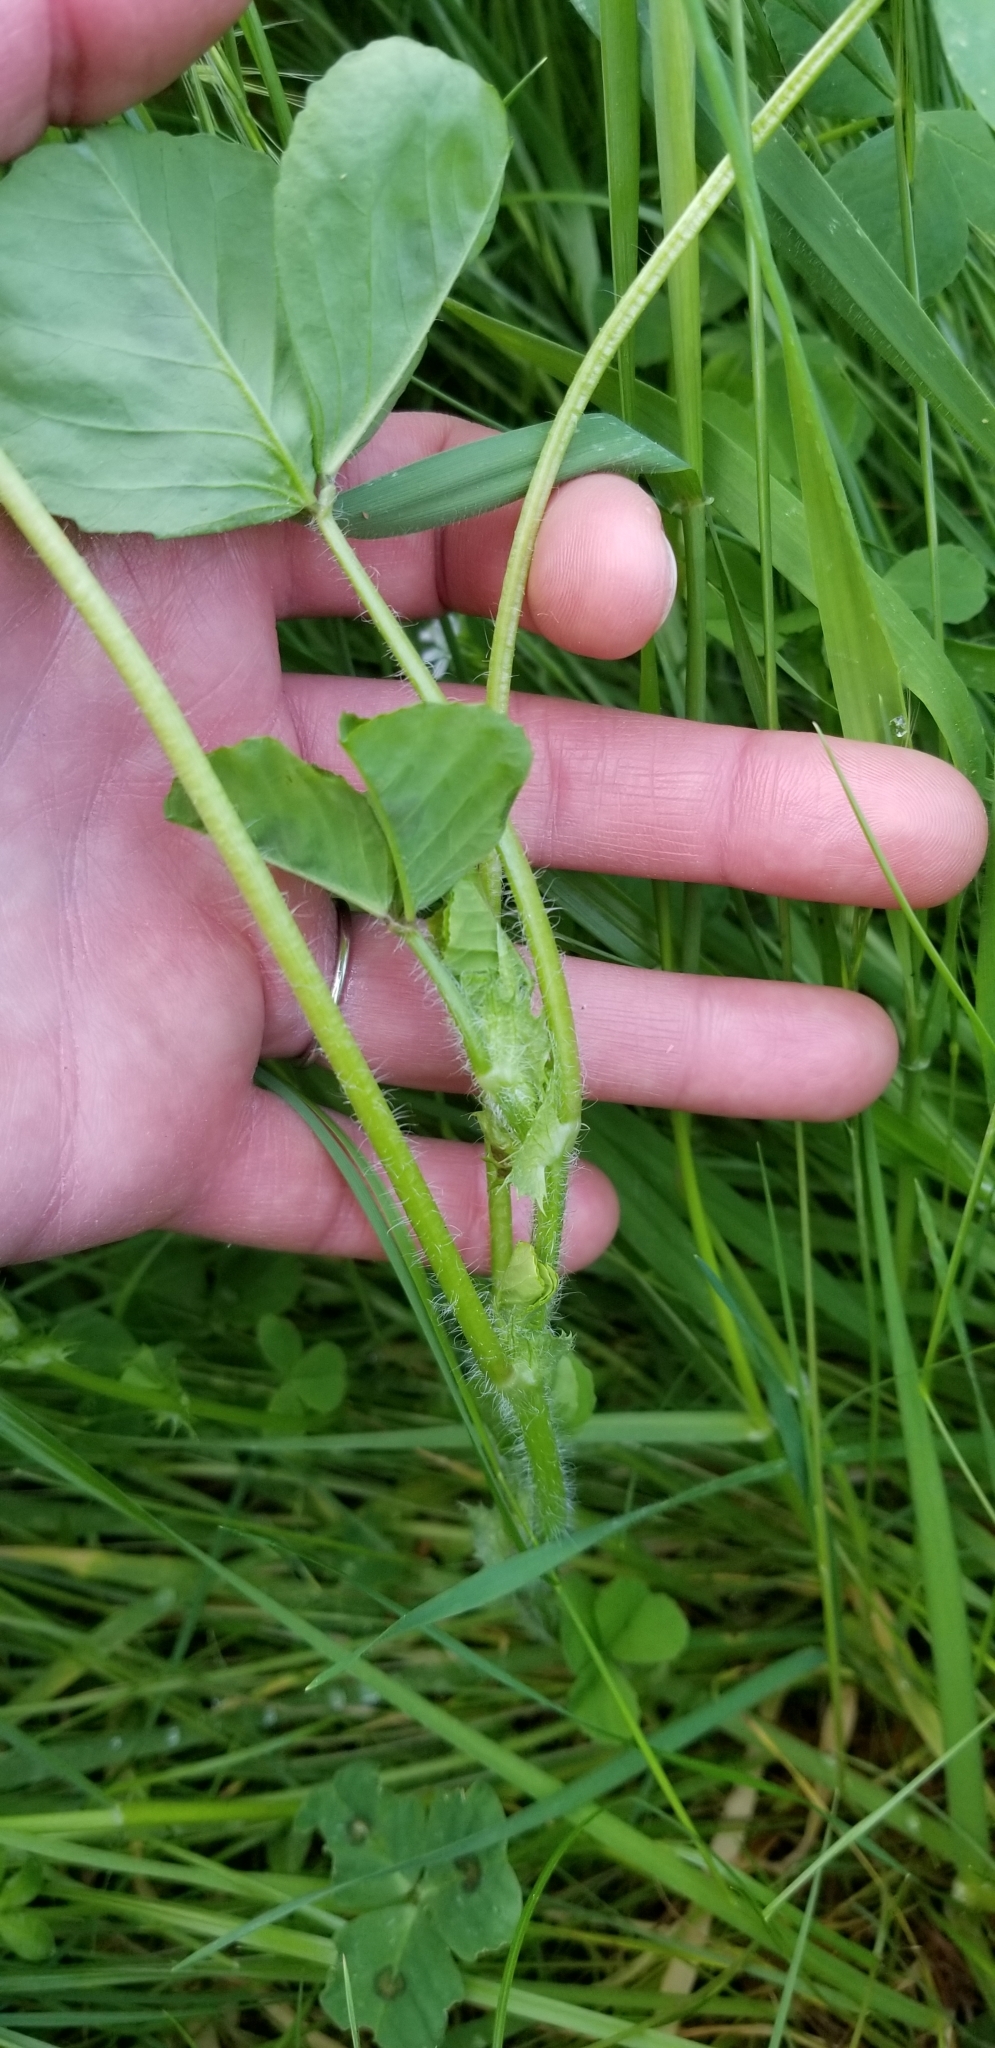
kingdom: Plantae
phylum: Tracheophyta
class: Magnoliopsida
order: Fabales
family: Fabaceae
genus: Medicago
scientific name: Medicago arabica
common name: Spotted medick
